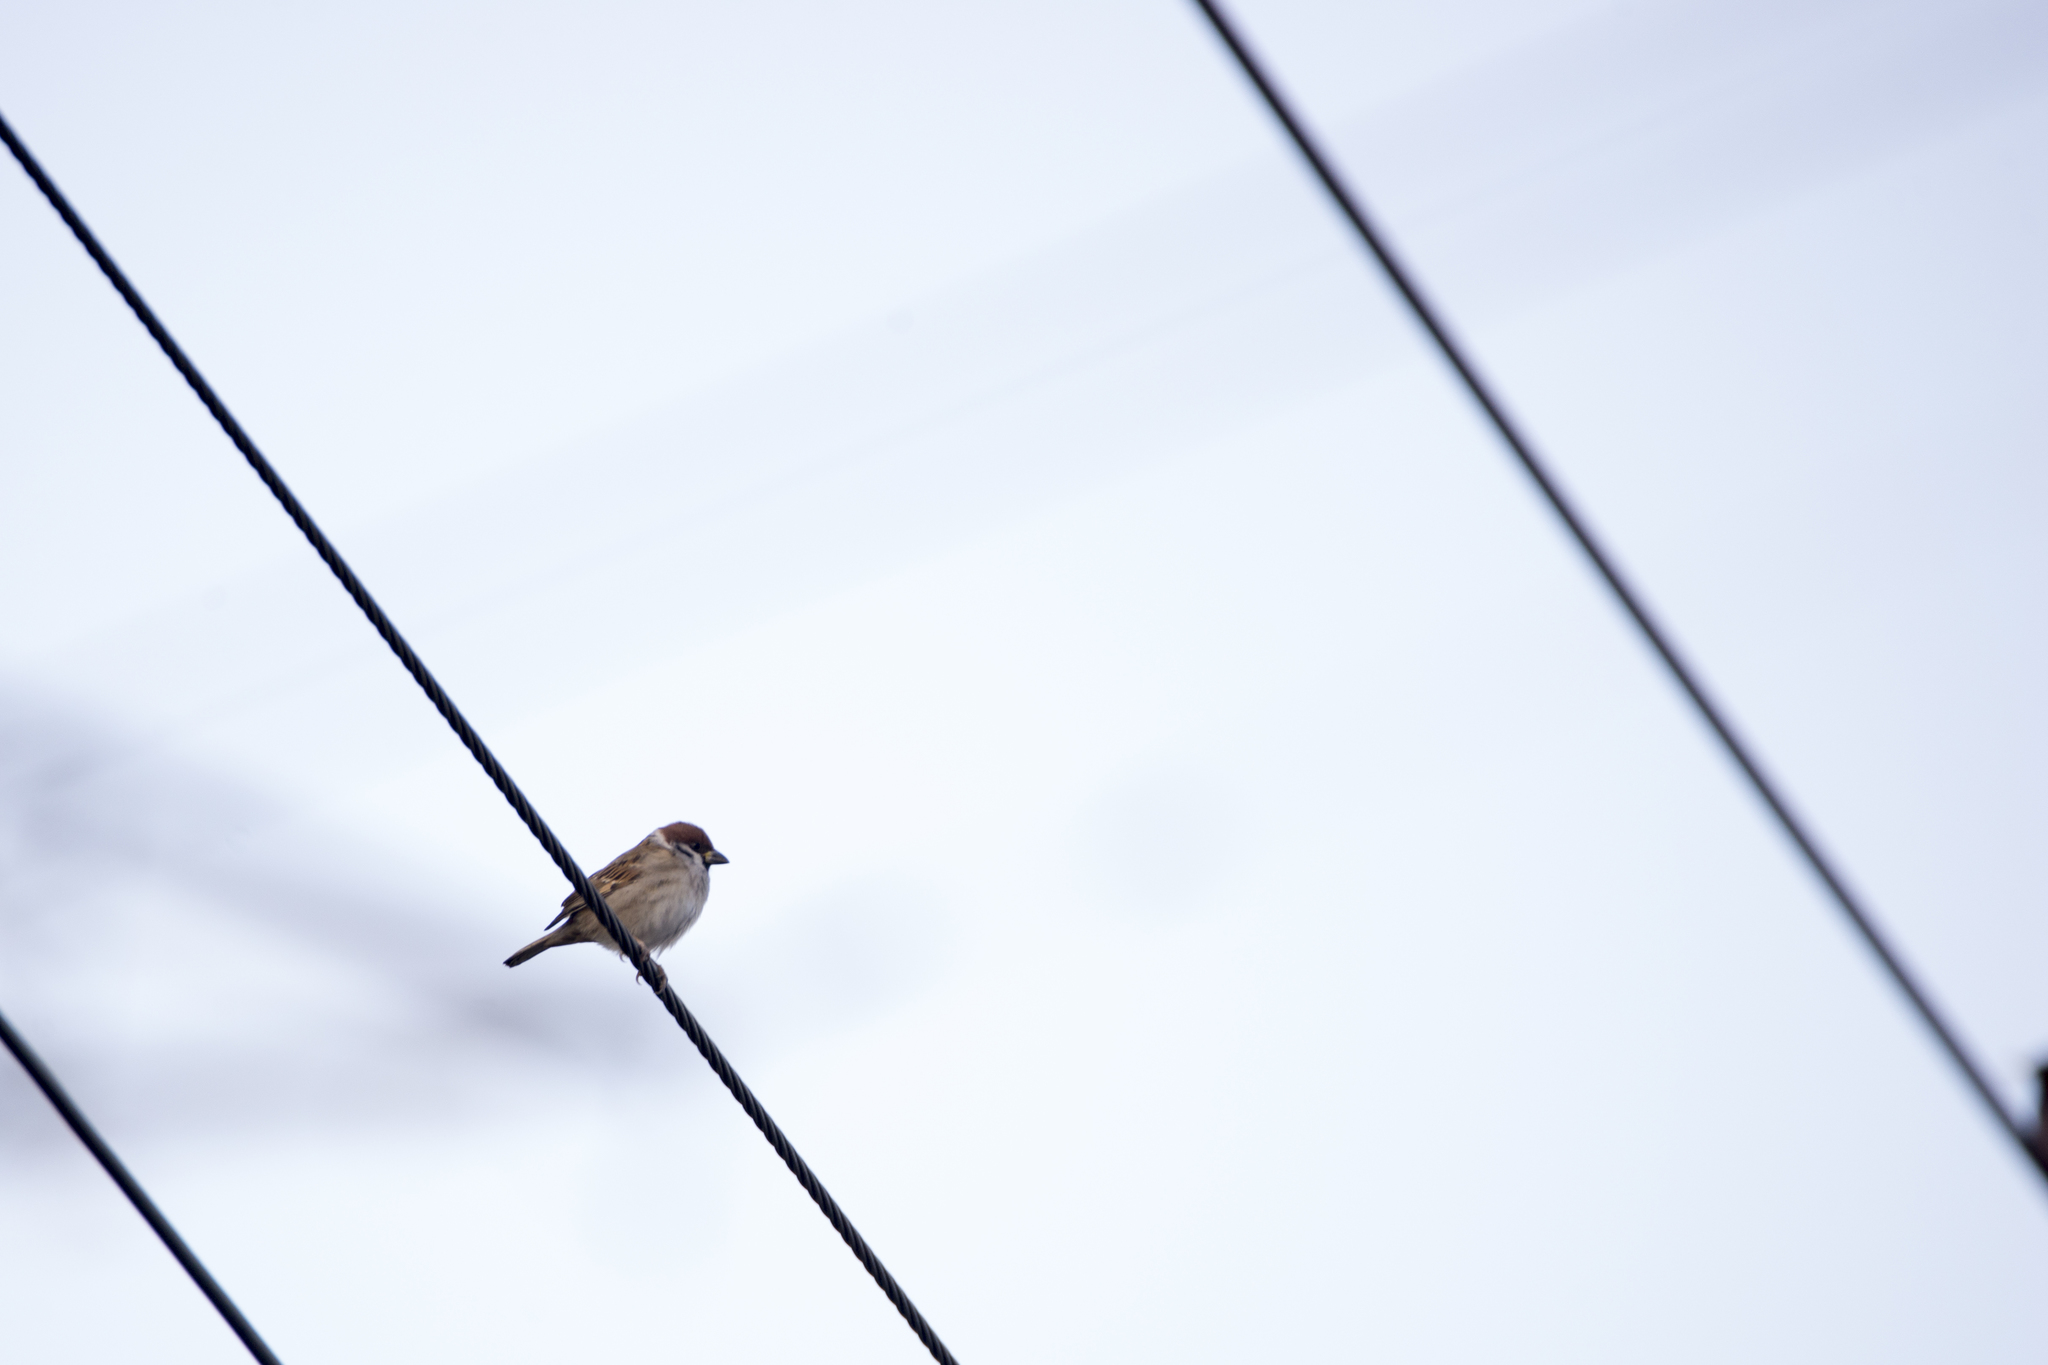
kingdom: Animalia
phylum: Chordata
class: Aves
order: Passeriformes
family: Passeridae
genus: Passer
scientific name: Passer montanus
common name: Eurasian tree sparrow
